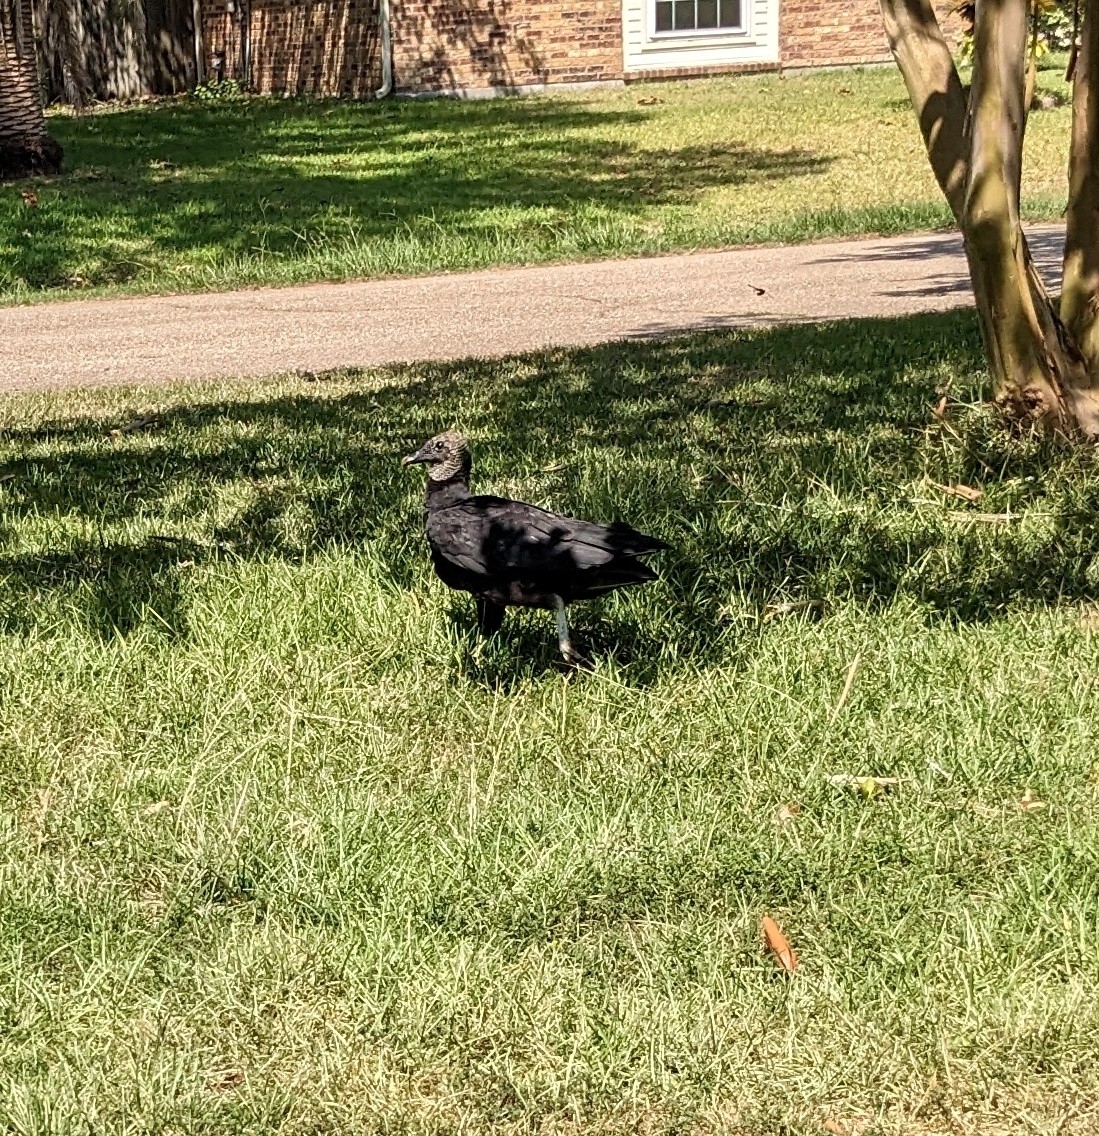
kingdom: Animalia
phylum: Chordata
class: Aves
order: Accipitriformes
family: Cathartidae
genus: Coragyps
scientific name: Coragyps atratus
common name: Black vulture
